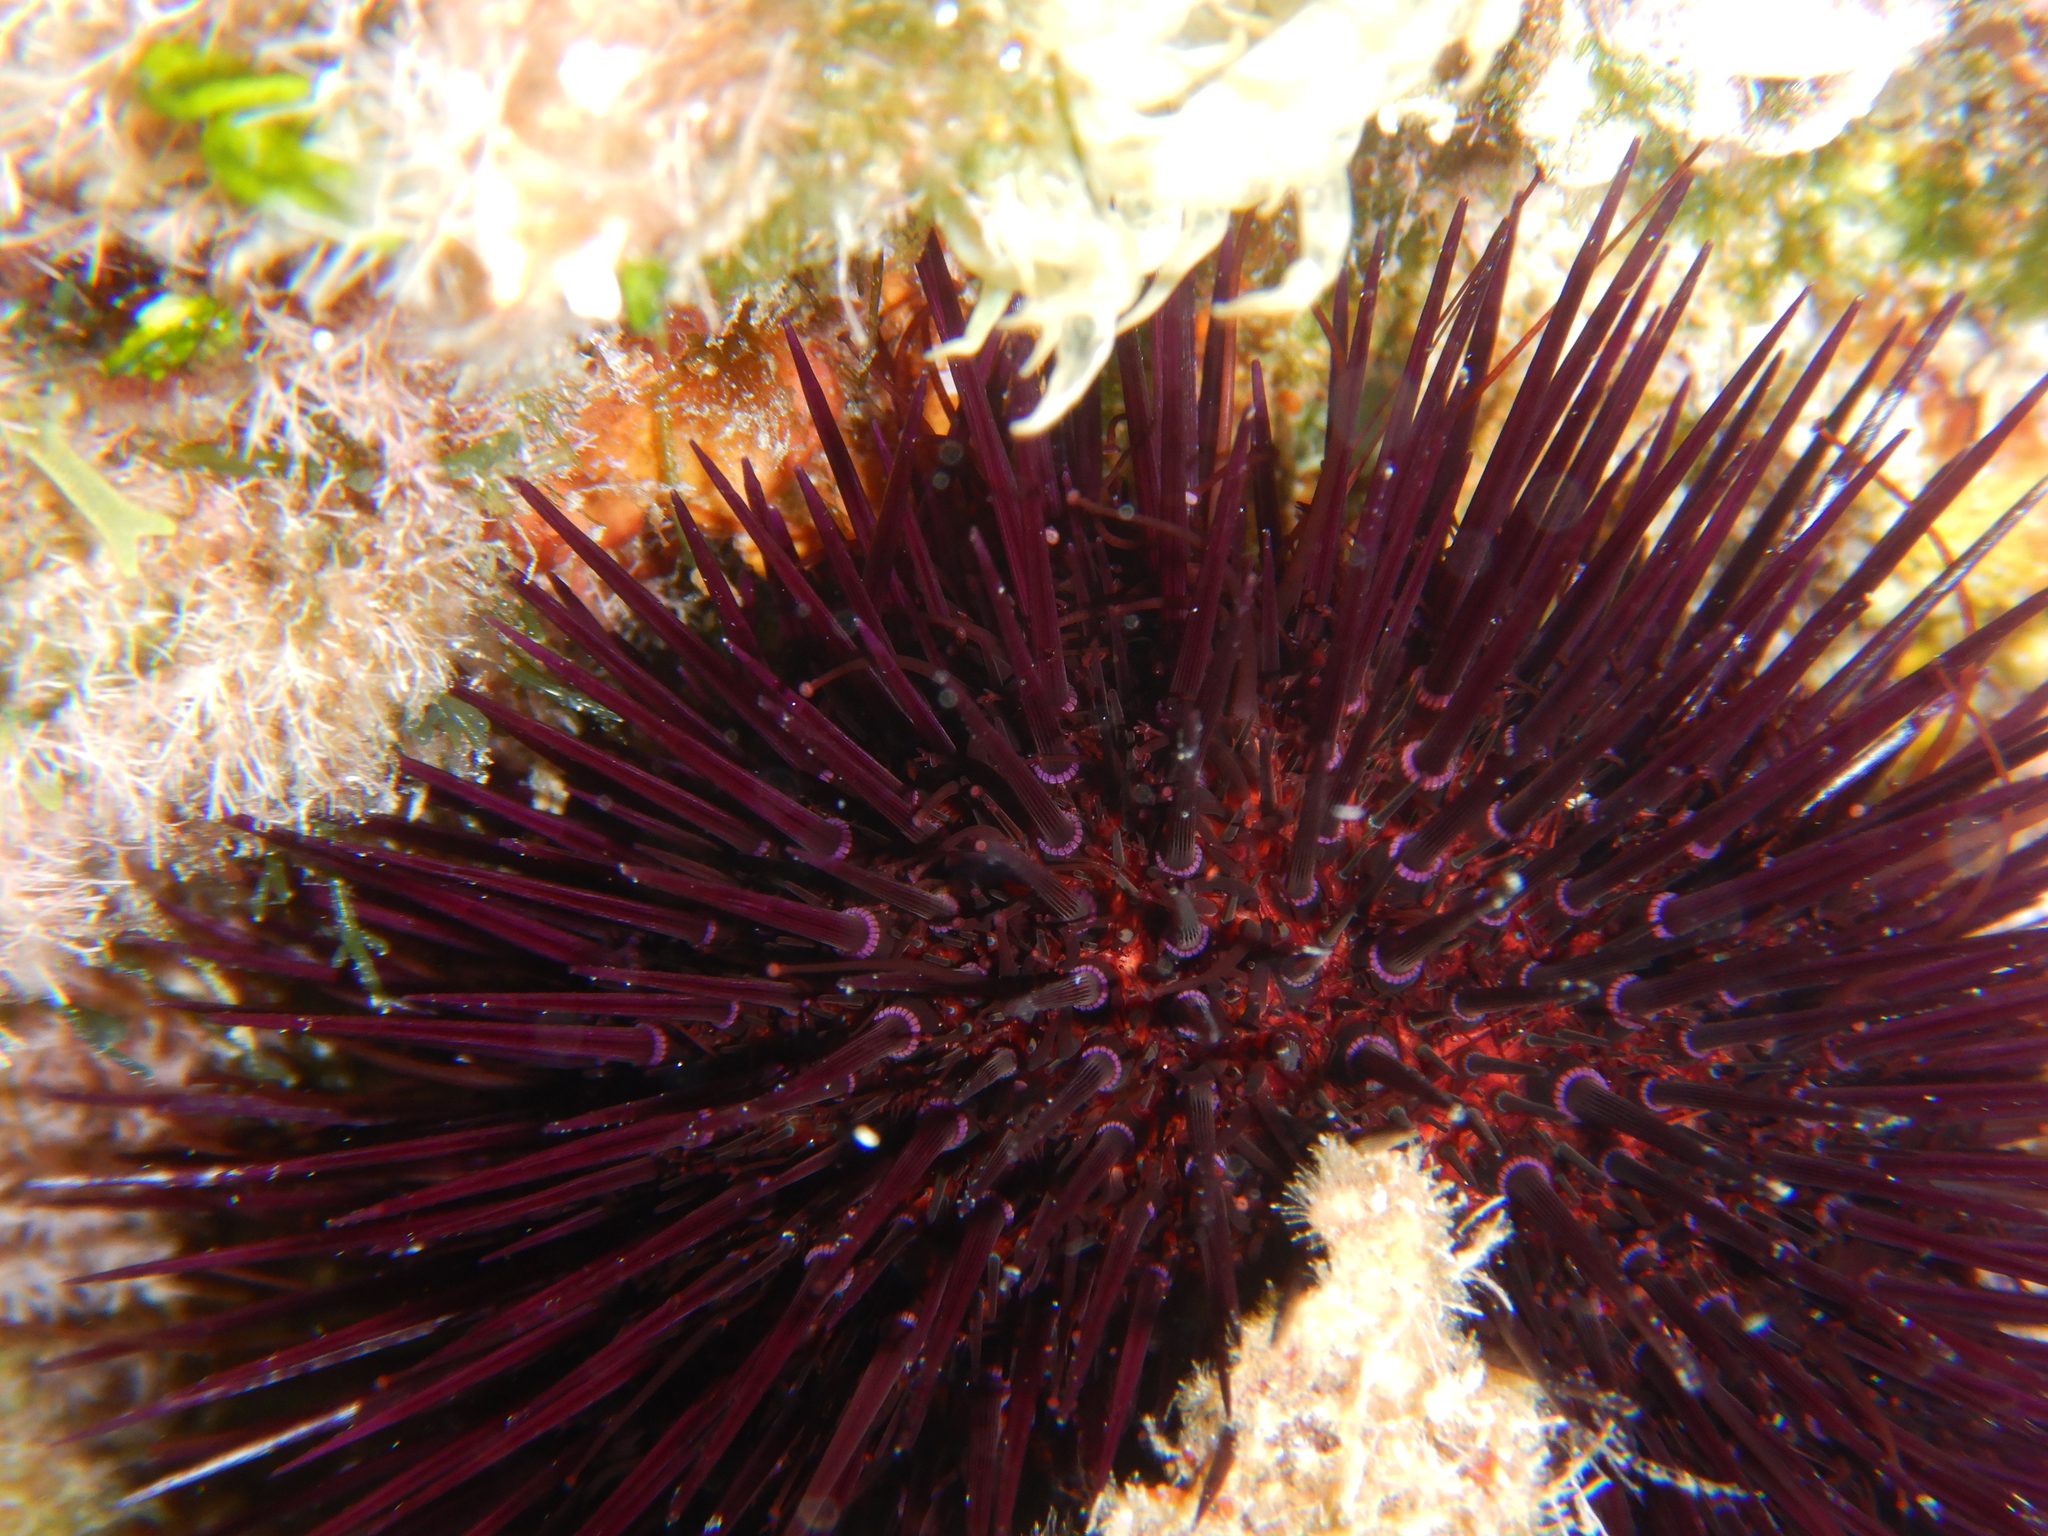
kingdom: Animalia
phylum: Echinodermata
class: Echinoidea
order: Camarodonta
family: Parechinidae
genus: Paracentrotus
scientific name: Paracentrotus lividus
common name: Purple sea urchin
